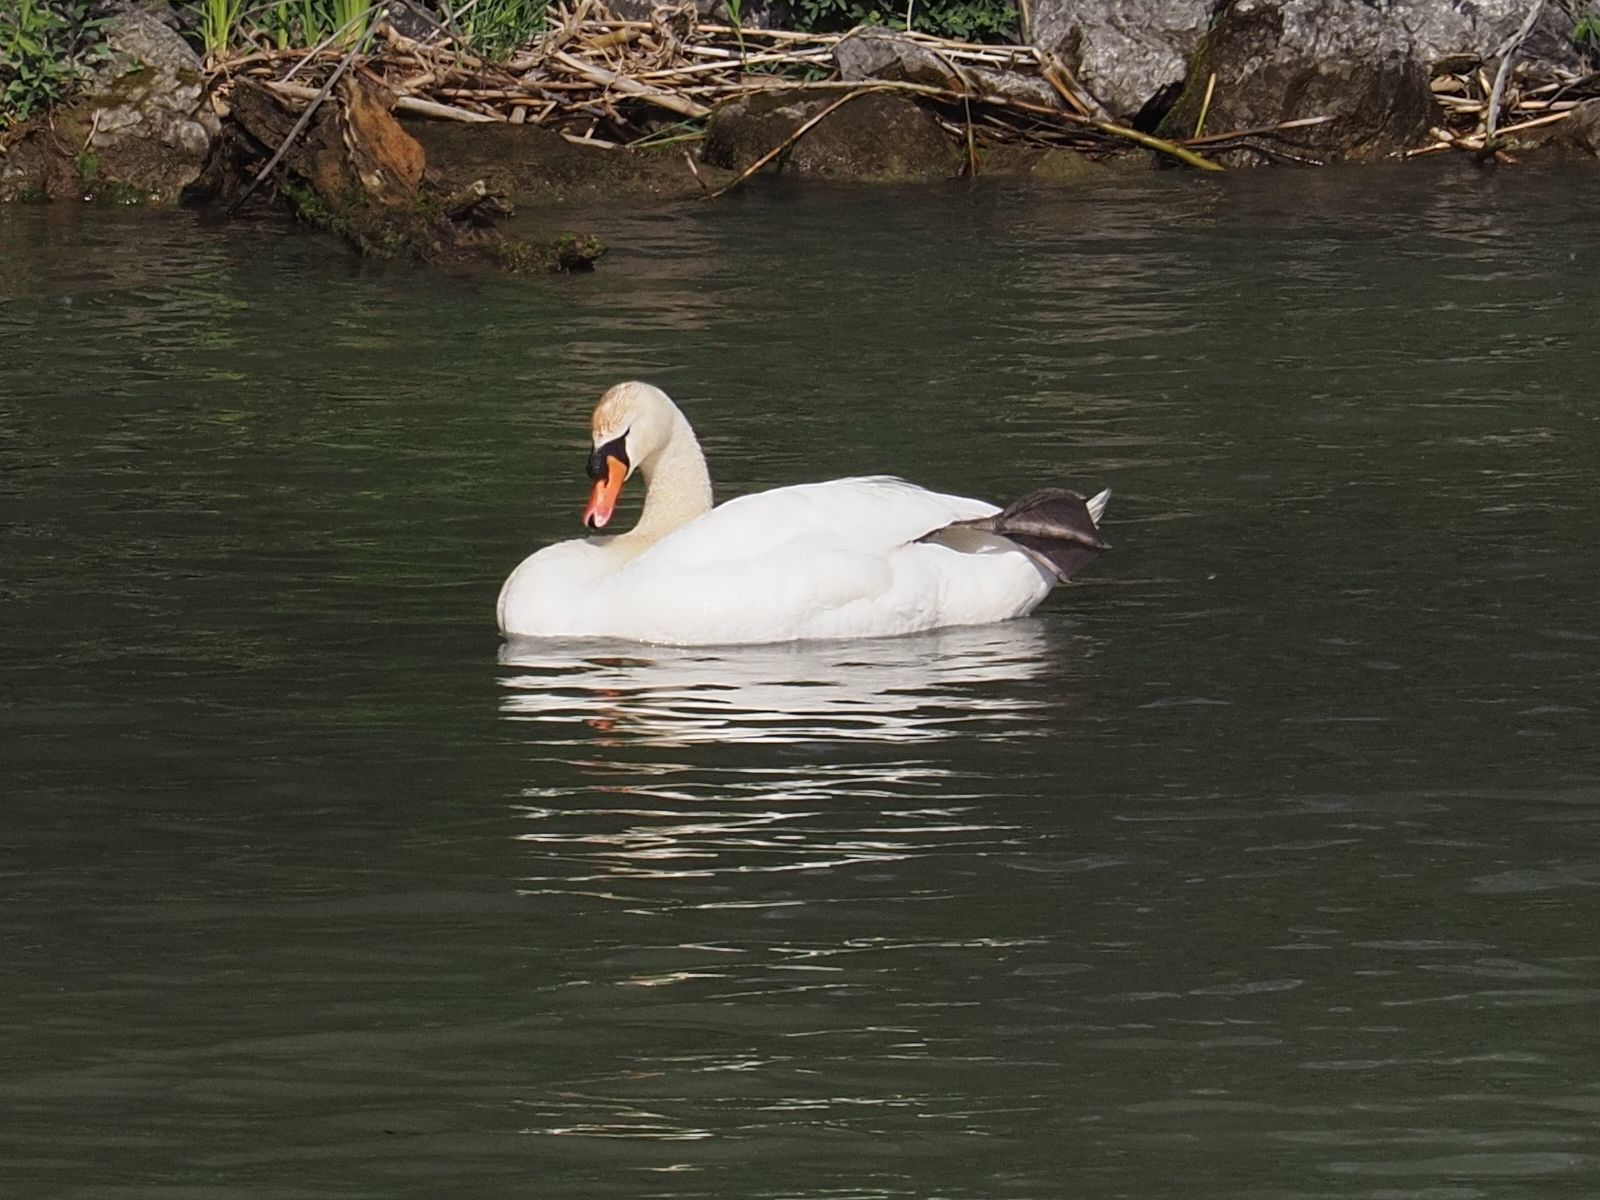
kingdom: Animalia
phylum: Chordata
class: Aves
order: Anseriformes
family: Anatidae
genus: Cygnus
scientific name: Cygnus olor
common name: Mute swan
